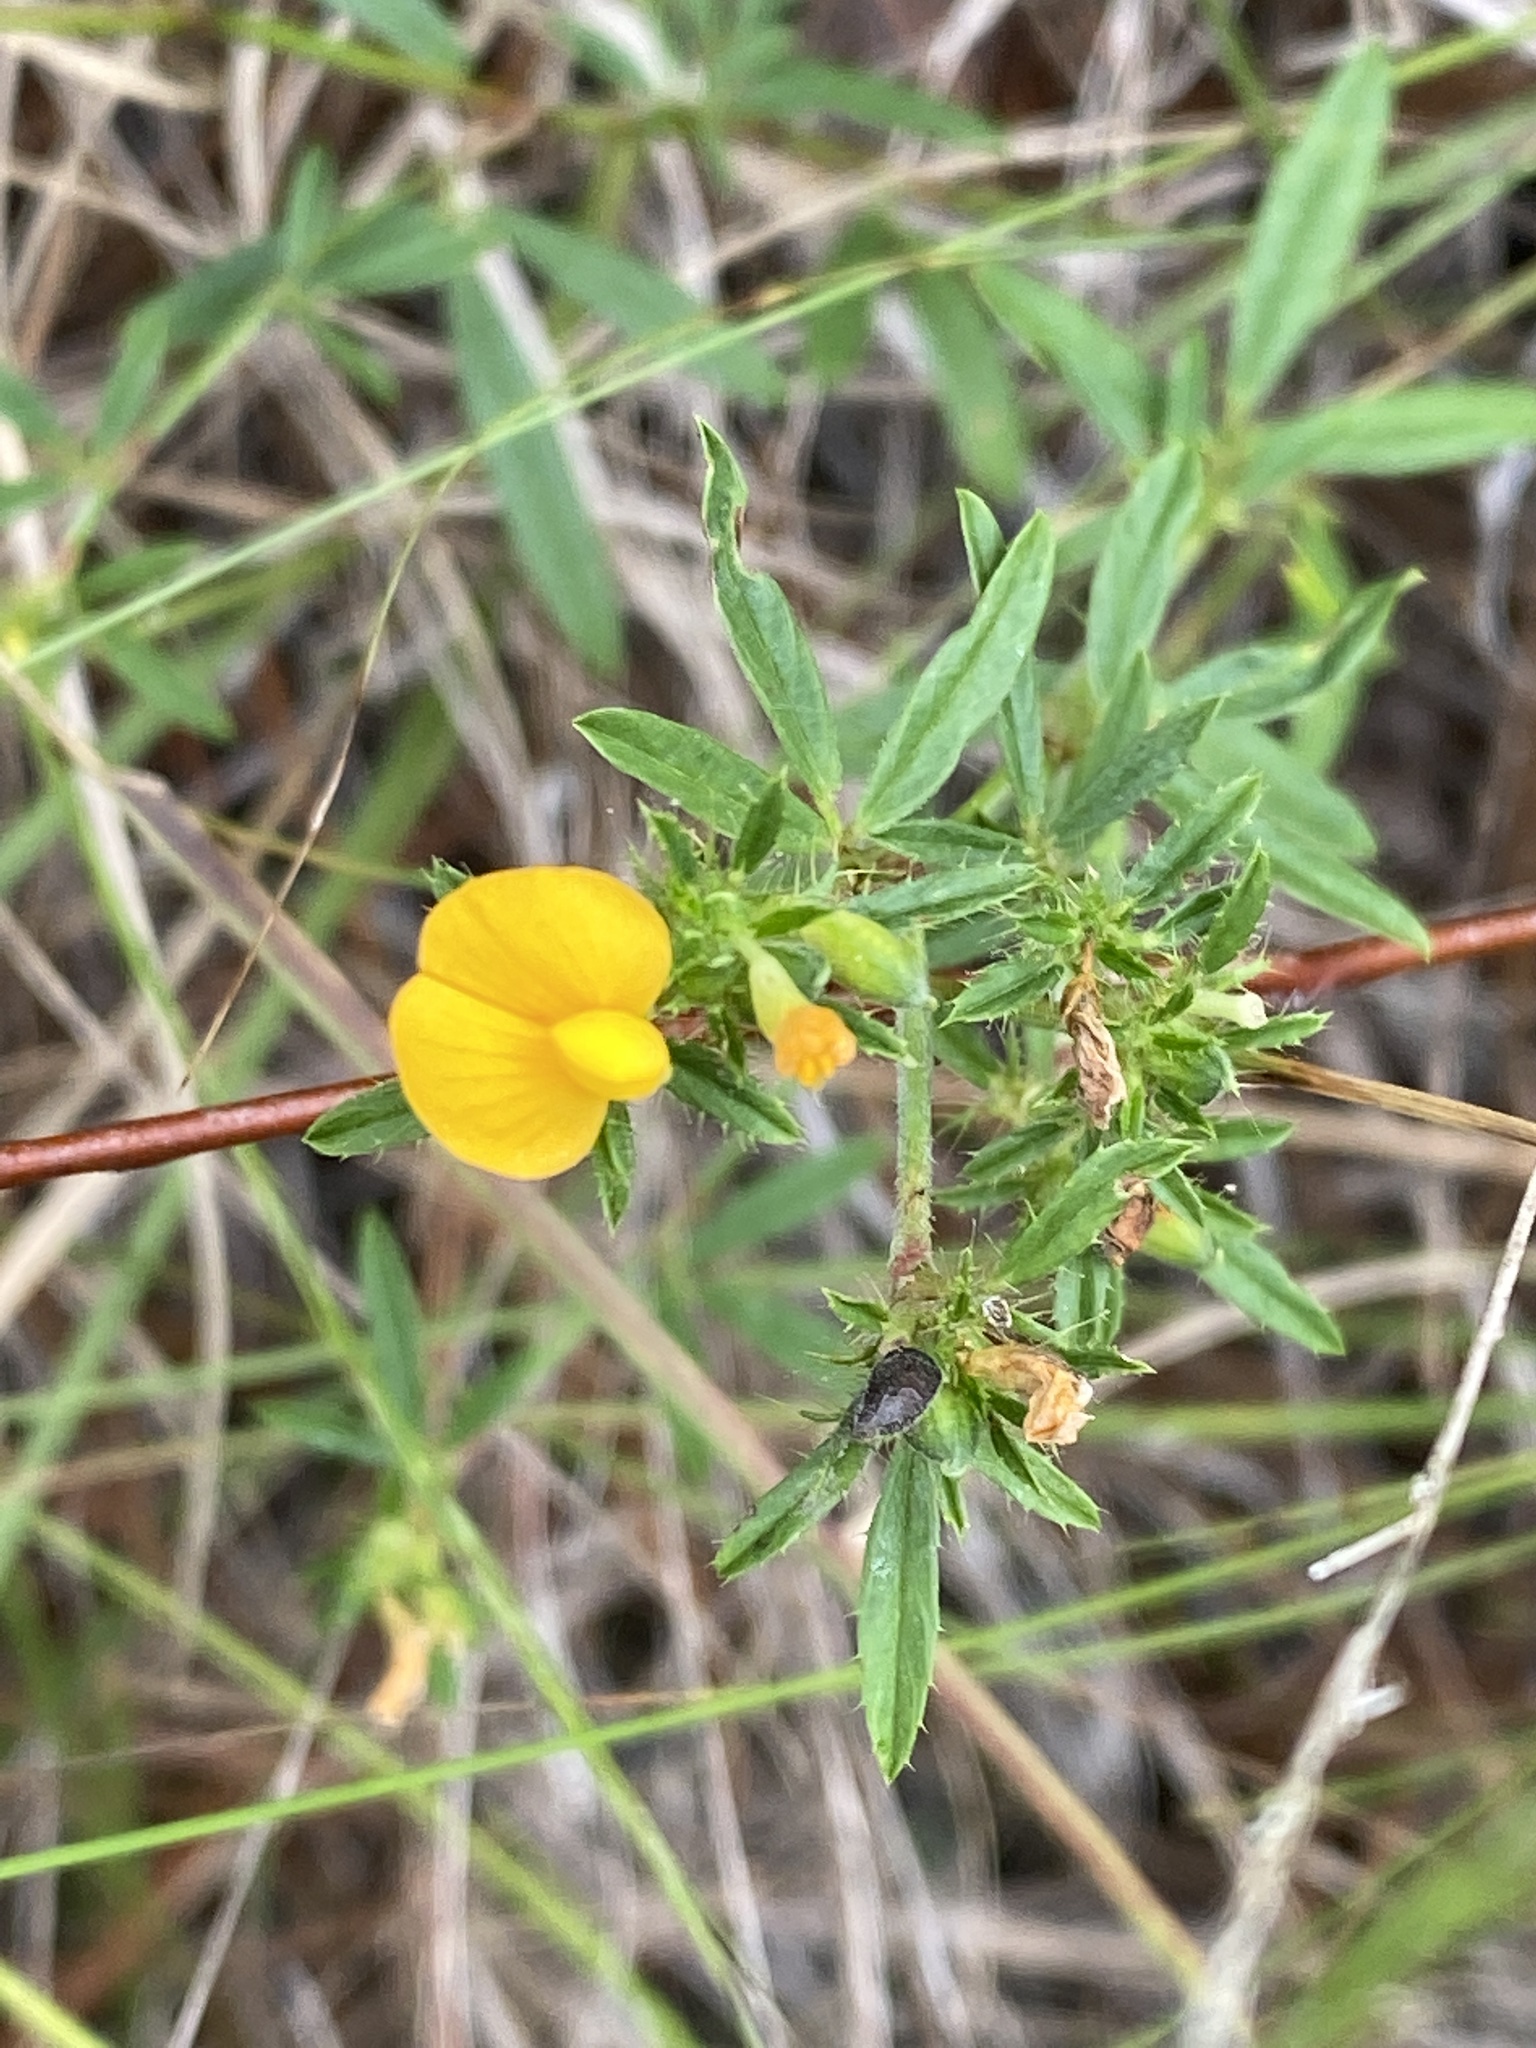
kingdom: Plantae
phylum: Tracheophyta
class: Magnoliopsida
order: Fabales
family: Fabaceae
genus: Stylosanthes
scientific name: Stylosanthes biflora
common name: Two-flower pencil-flower
